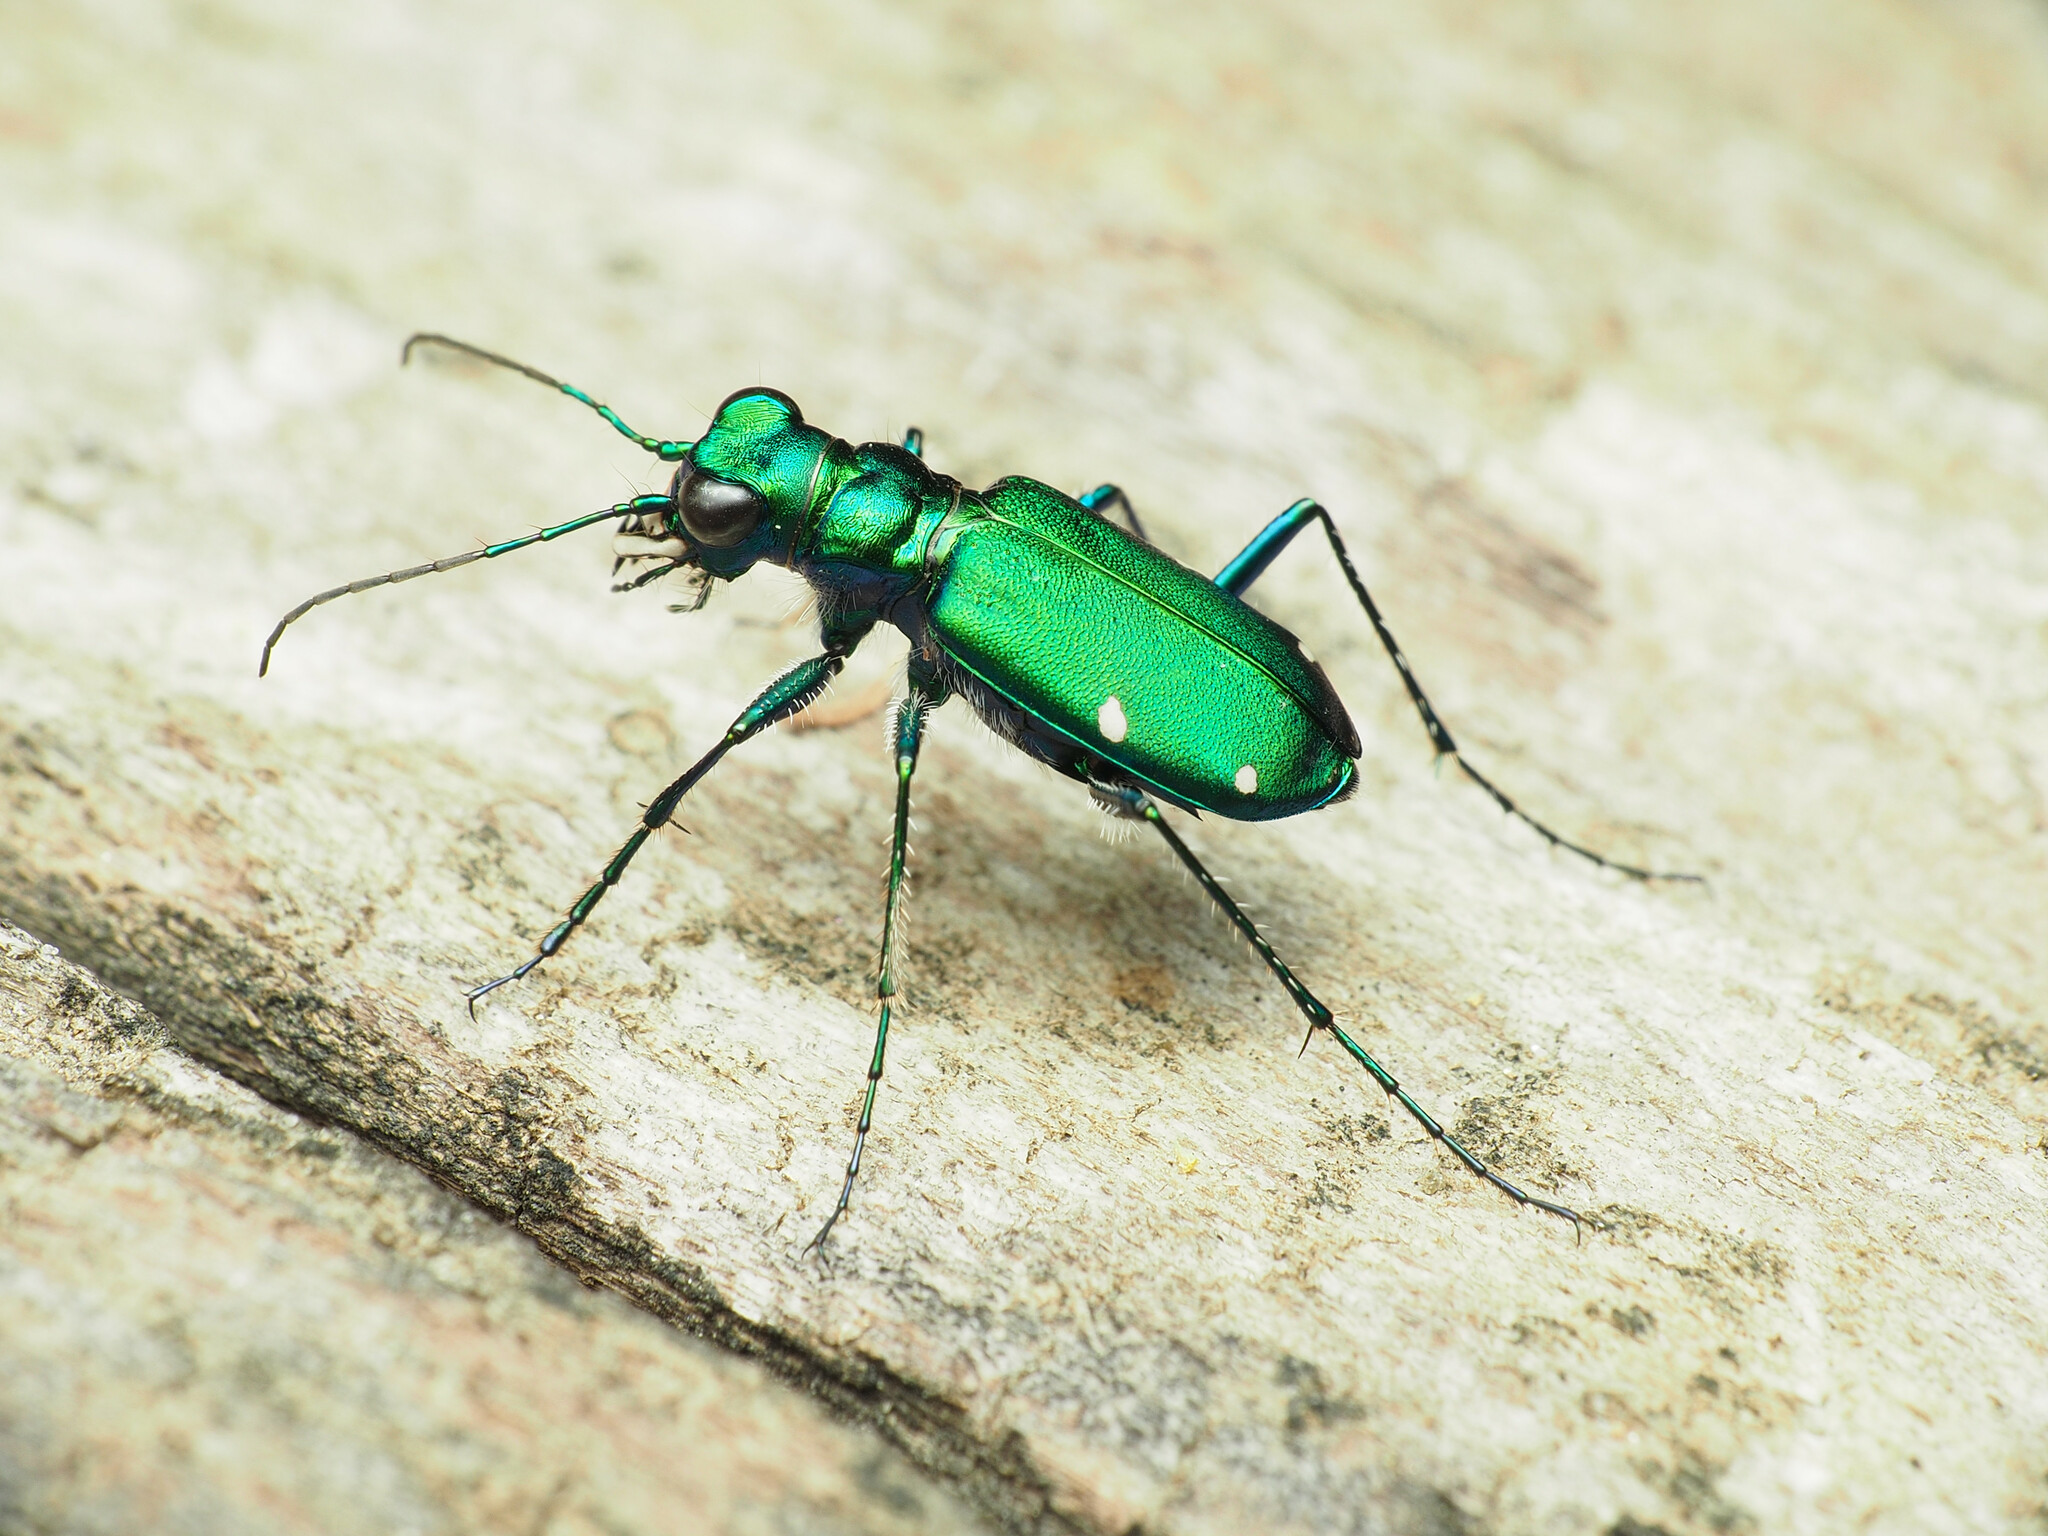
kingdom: Animalia
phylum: Arthropoda
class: Insecta
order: Coleoptera
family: Carabidae
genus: Cicindela
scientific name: Cicindela sexguttata
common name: Six-spotted tiger beetle
